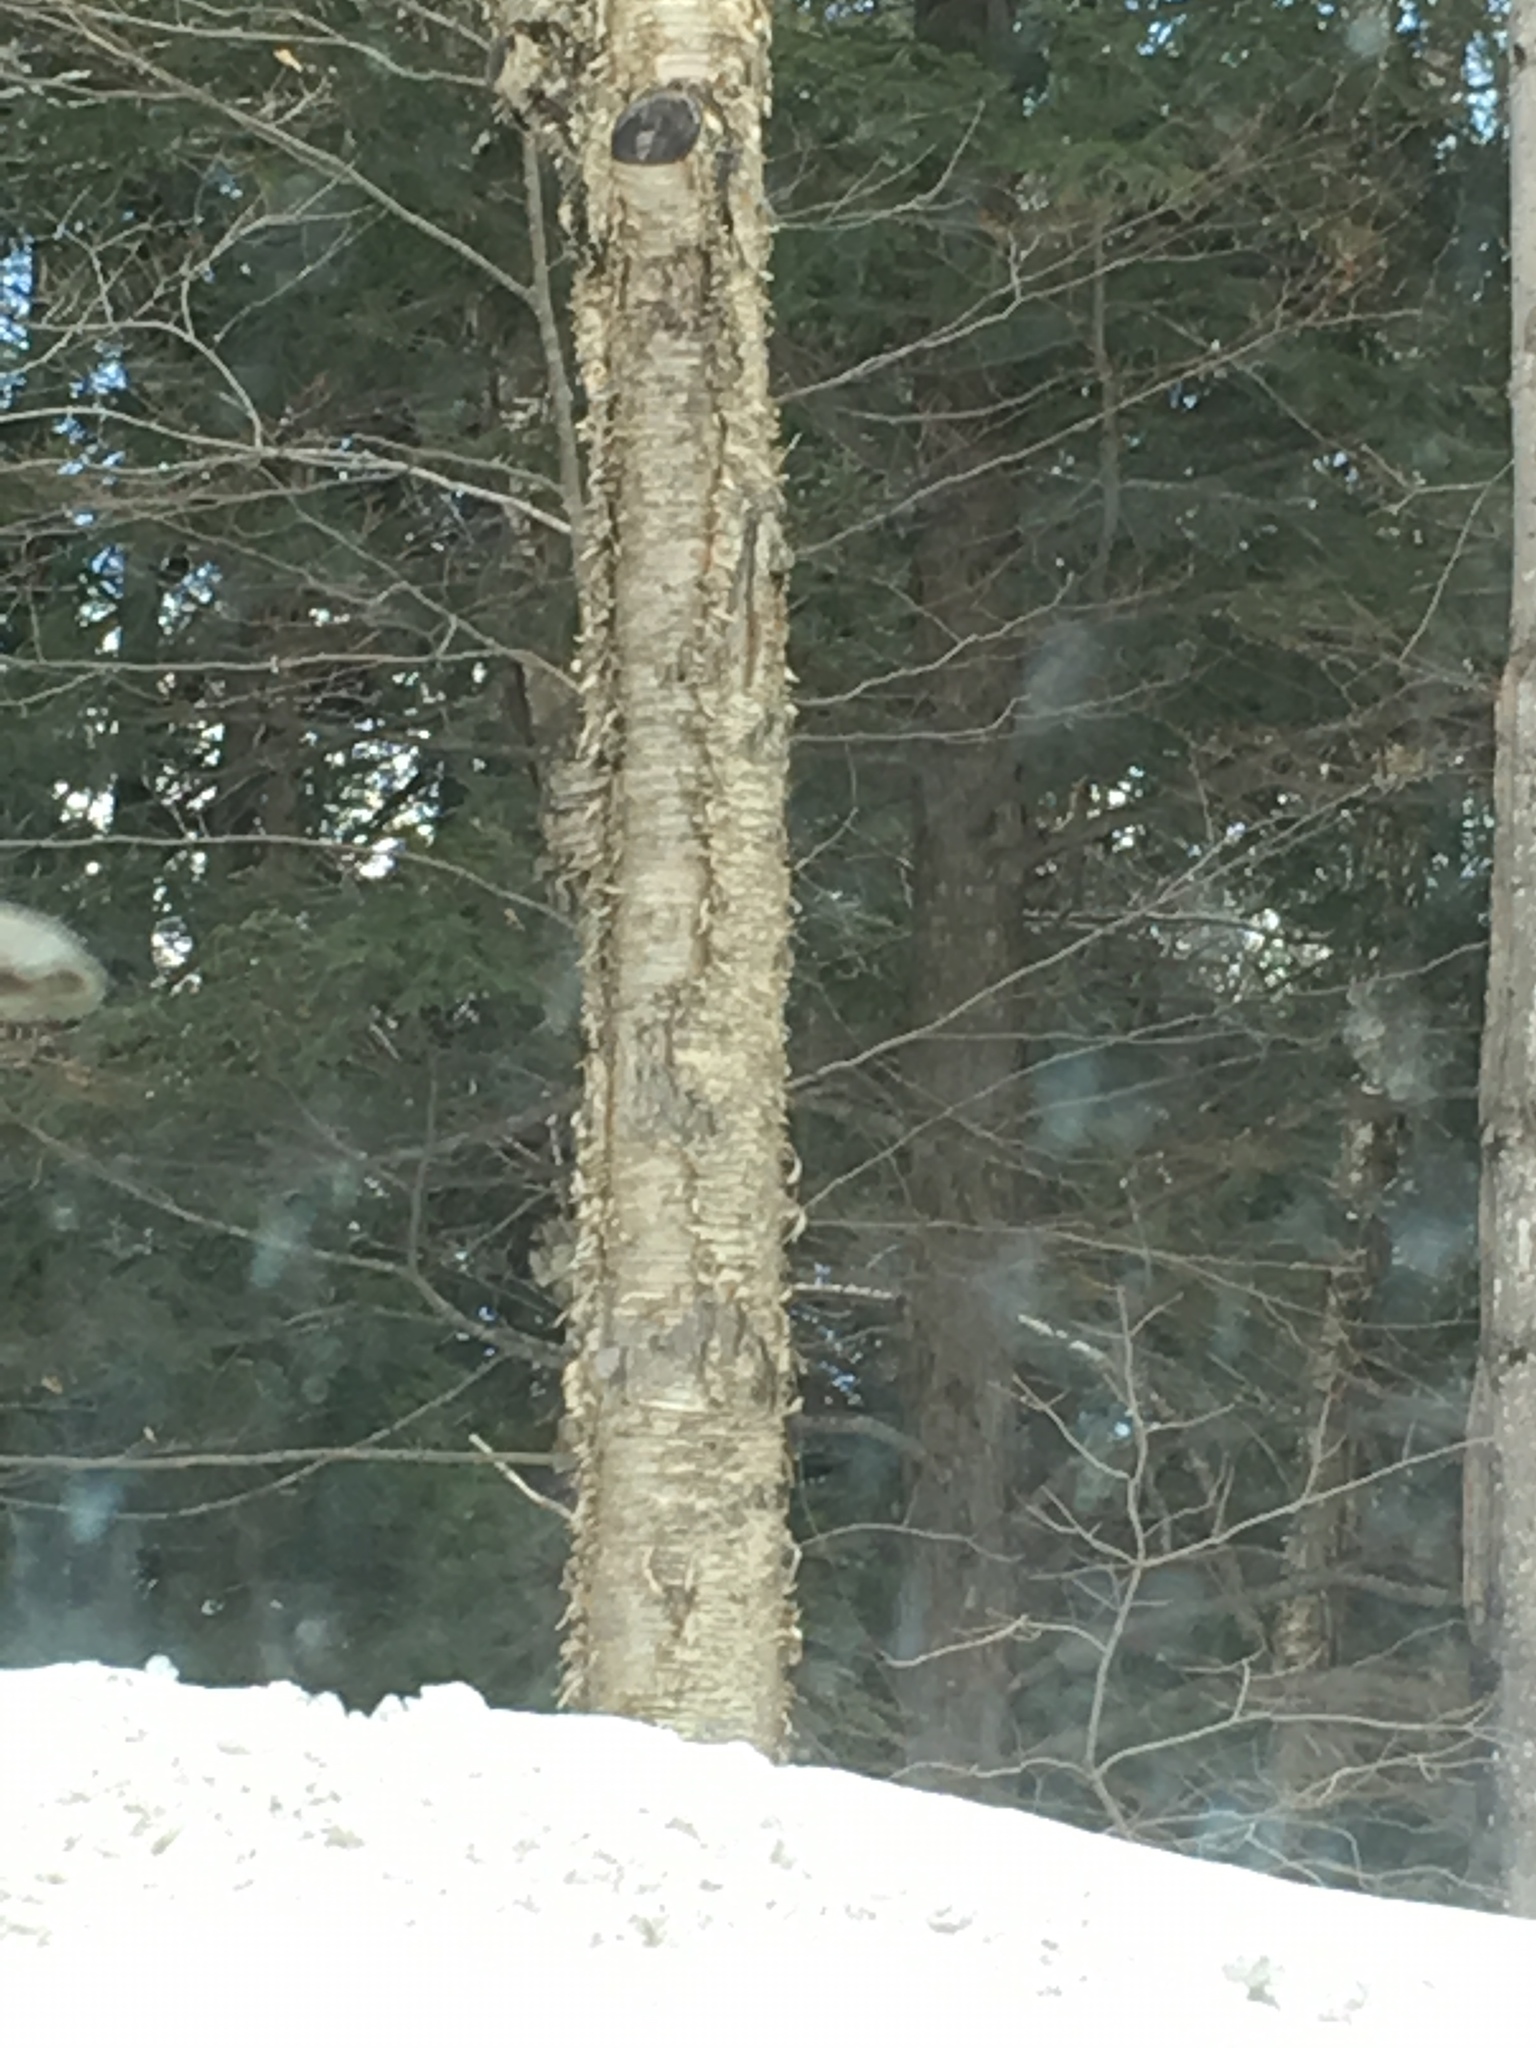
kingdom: Plantae
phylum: Tracheophyta
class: Magnoliopsida
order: Fagales
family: Betulaceae
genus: Betula
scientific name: Betula alleghaniensis
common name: Yellow birch
